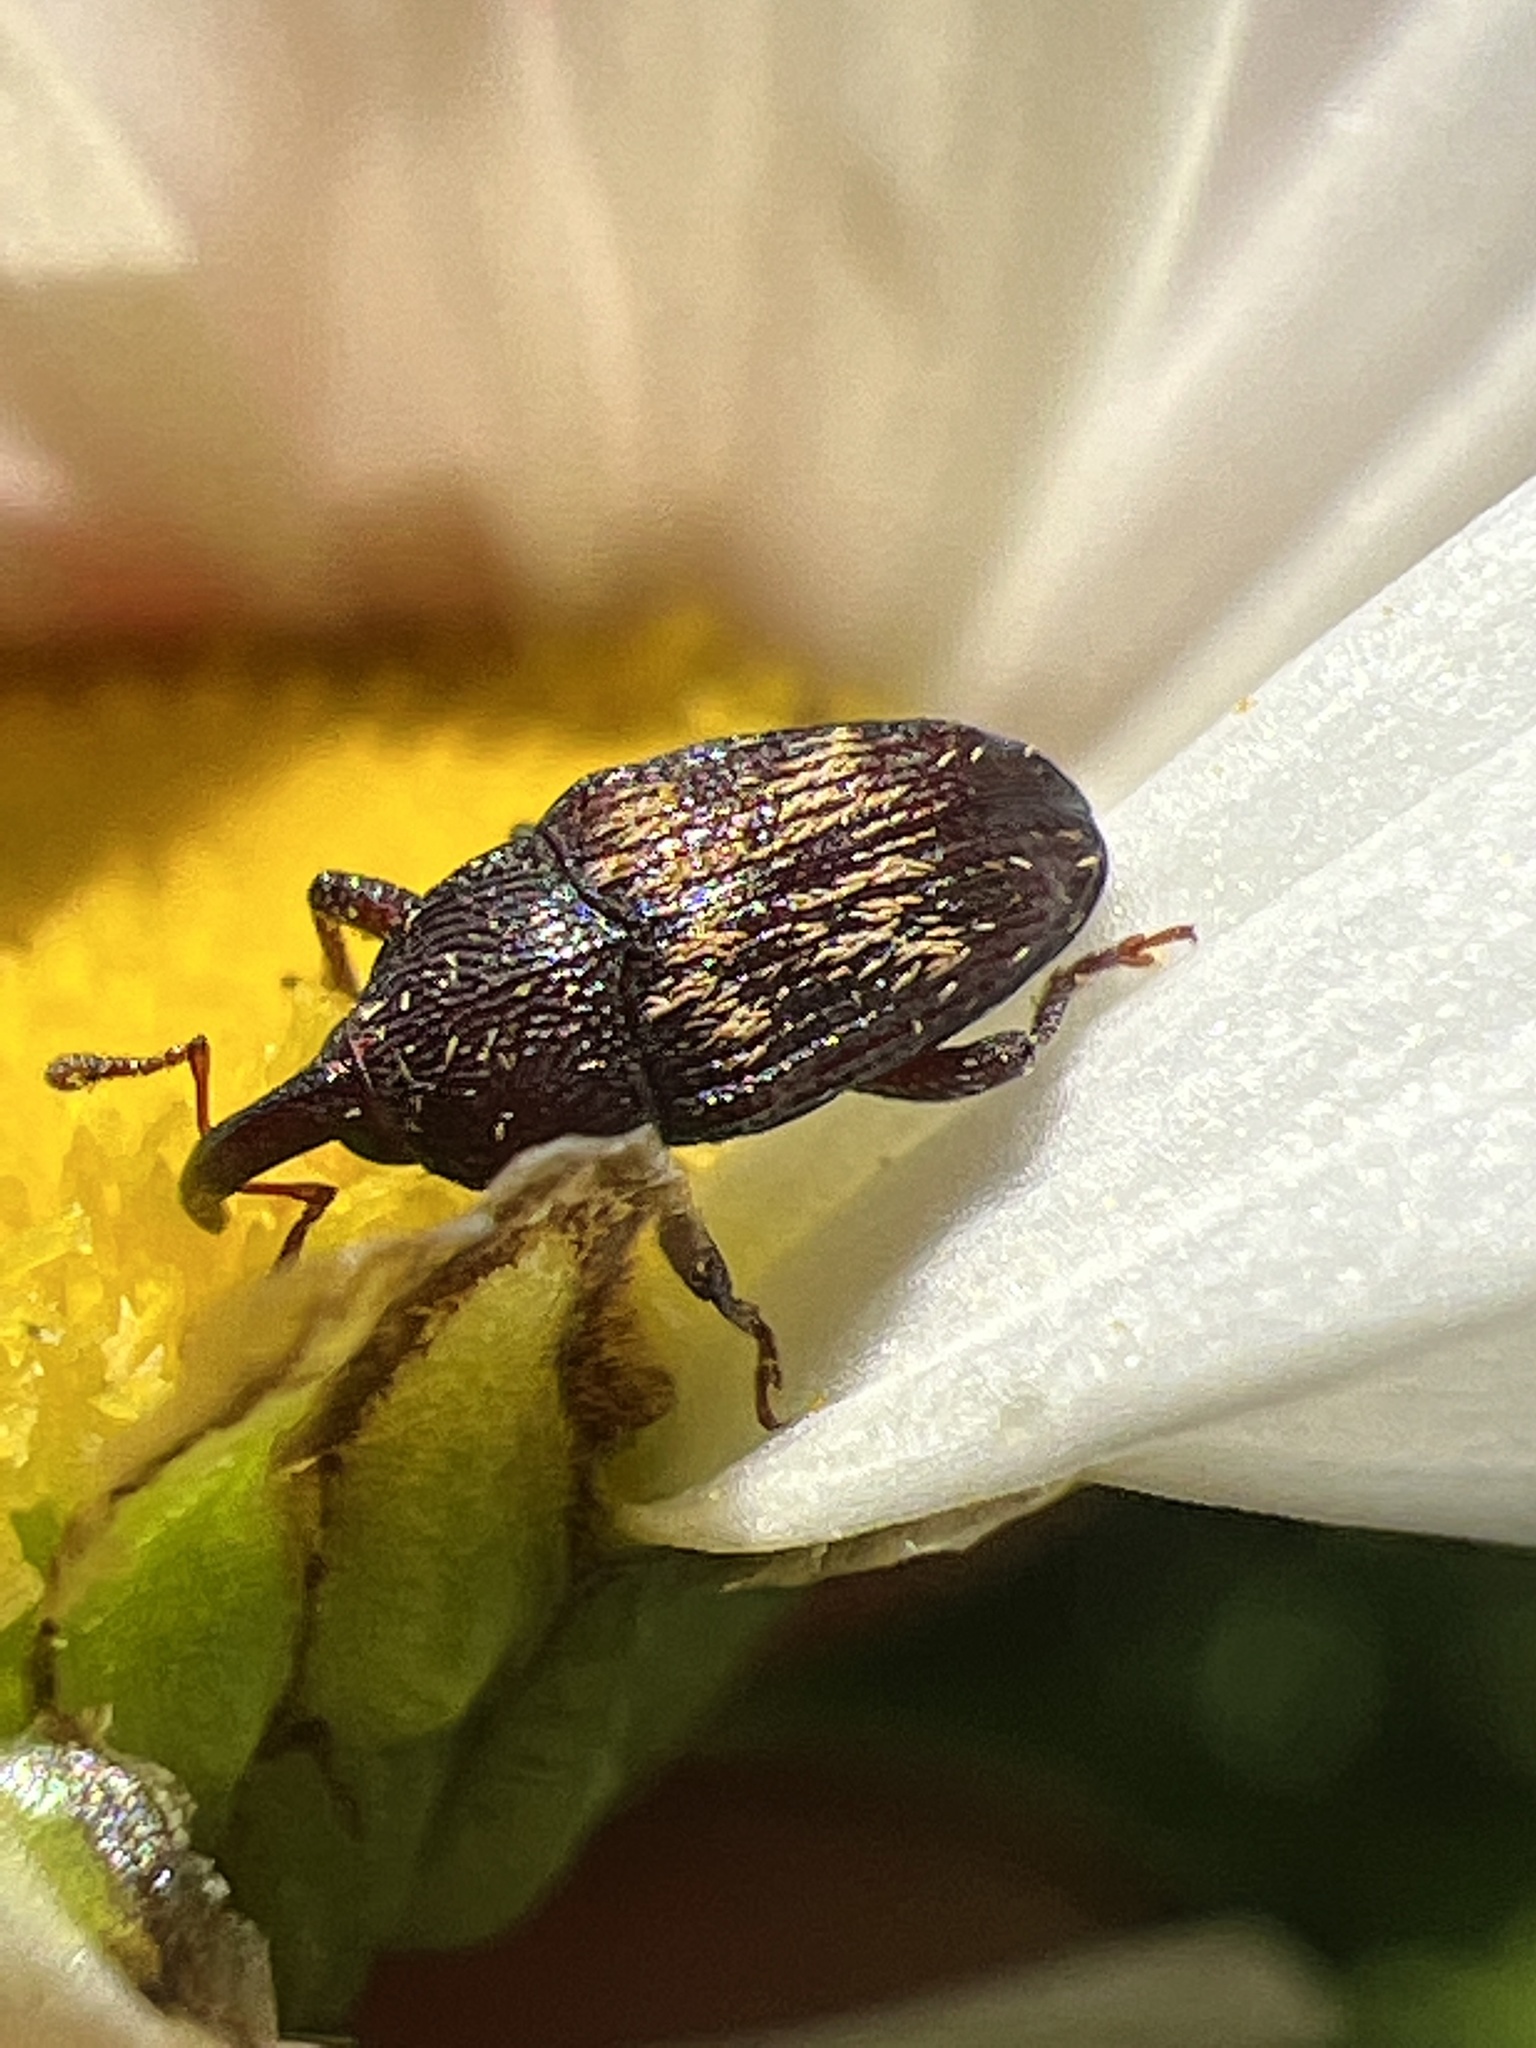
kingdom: Animalia
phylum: Arthropoda
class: Insecta
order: Coleoptera
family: Curculionidae
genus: Glyptobaris
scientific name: Glyptobaris lecontei
